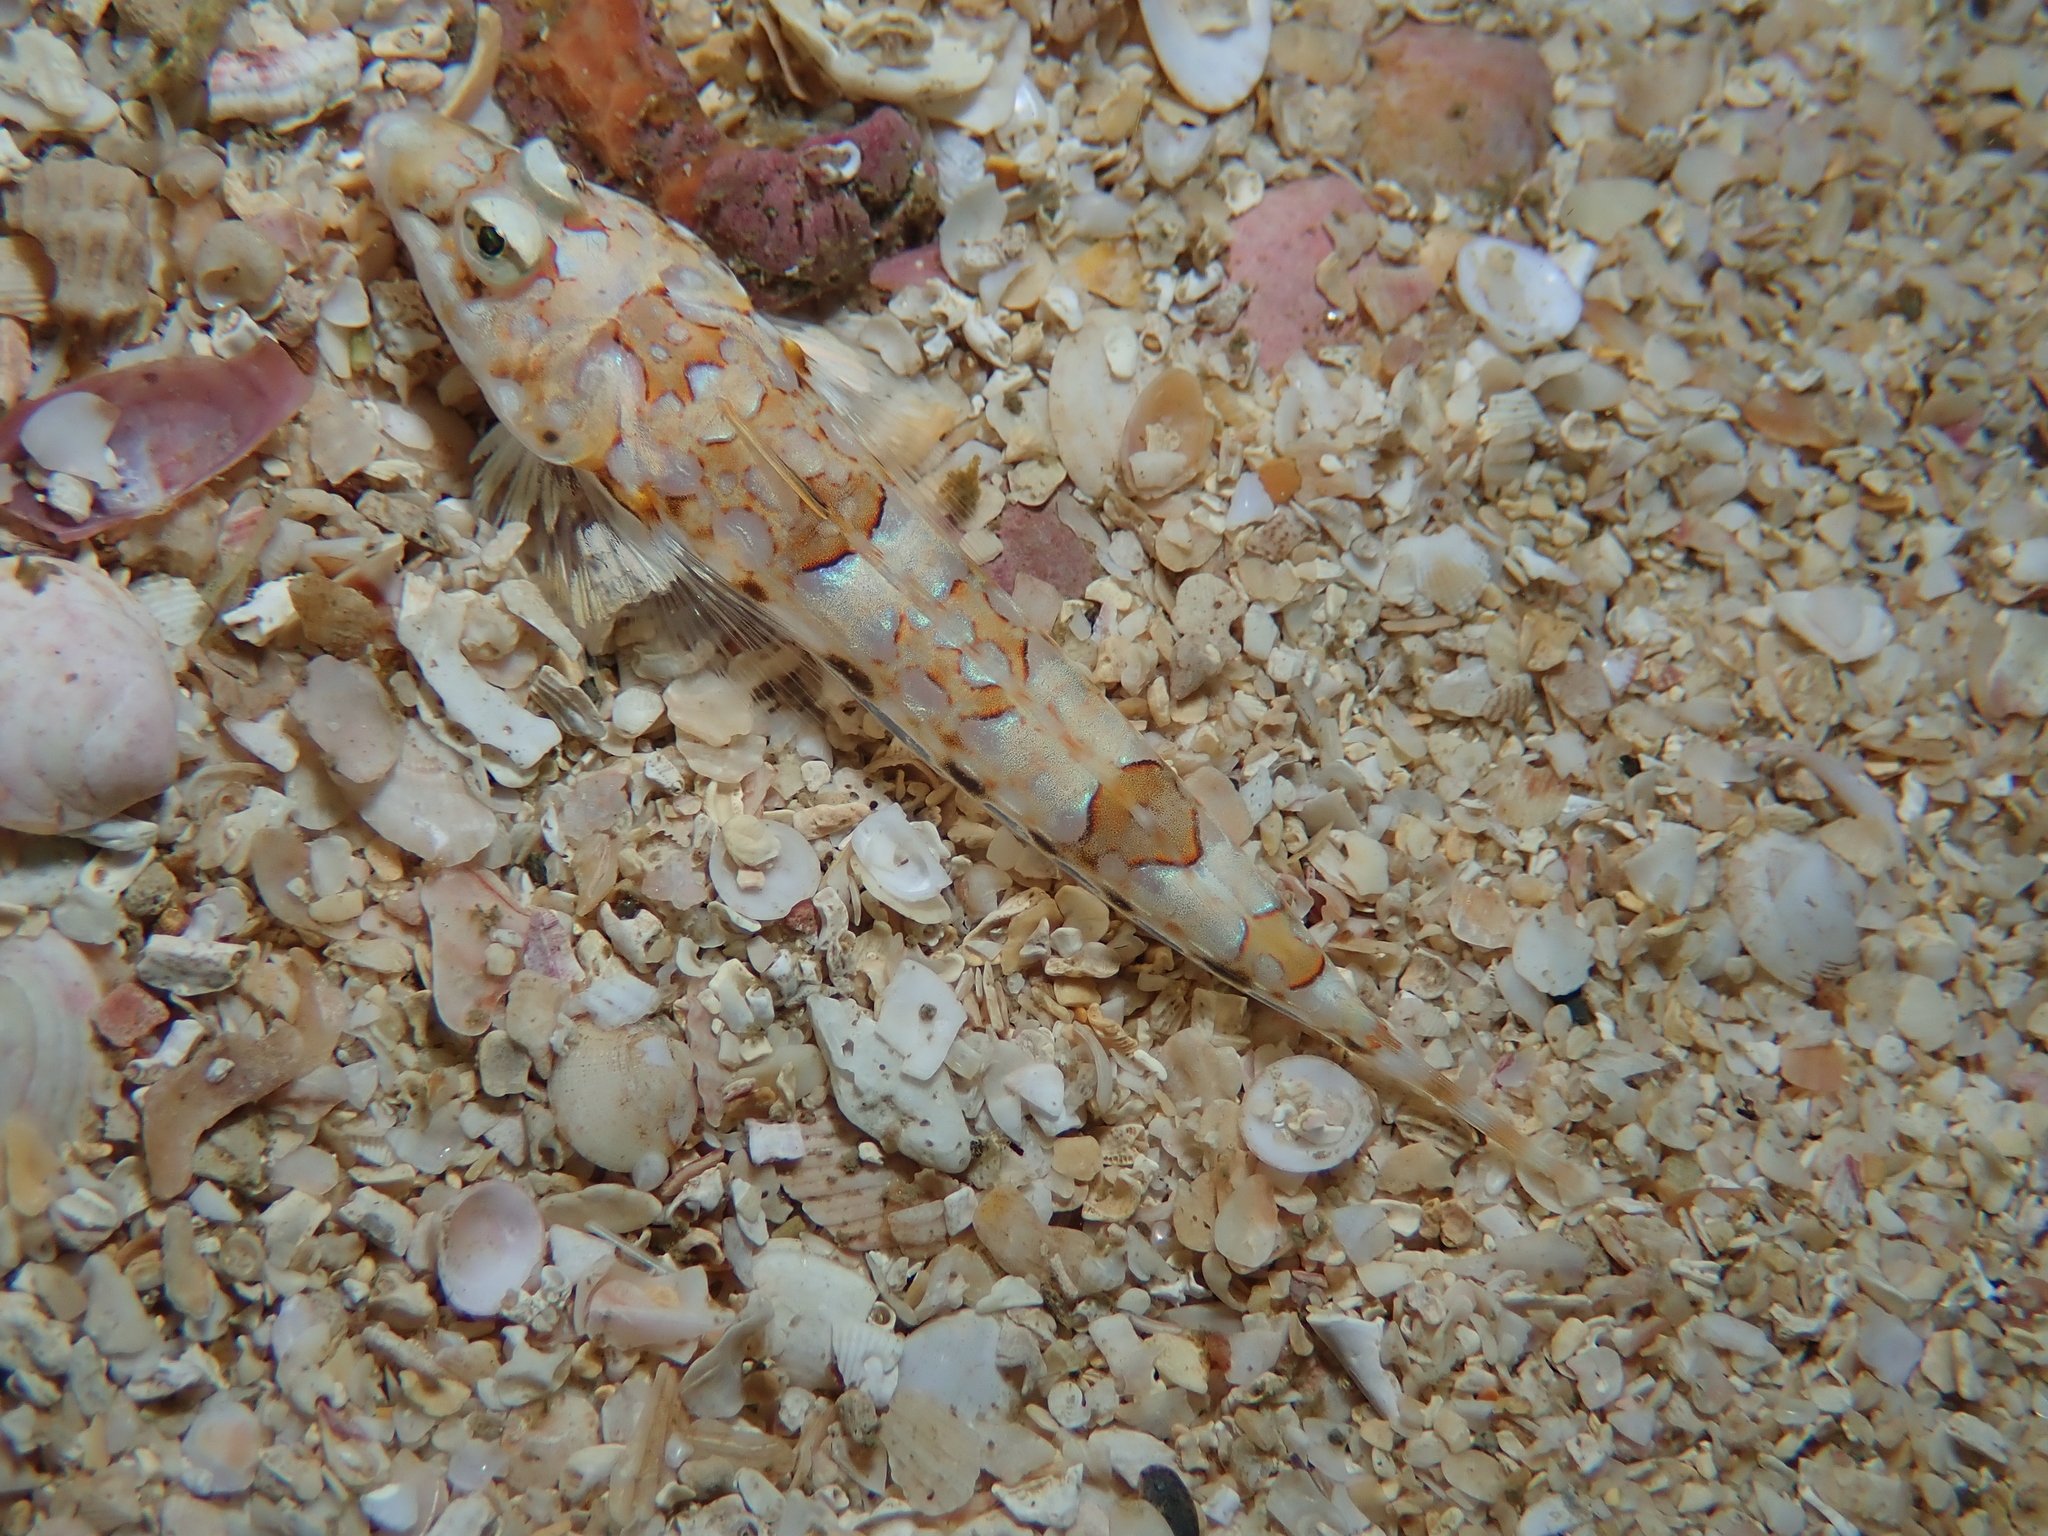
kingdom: Animalia
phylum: Chordata
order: Perciformes
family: Callionymidae
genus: Callionymus
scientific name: Callionymus reticulatus
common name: Reticulated dragonet
